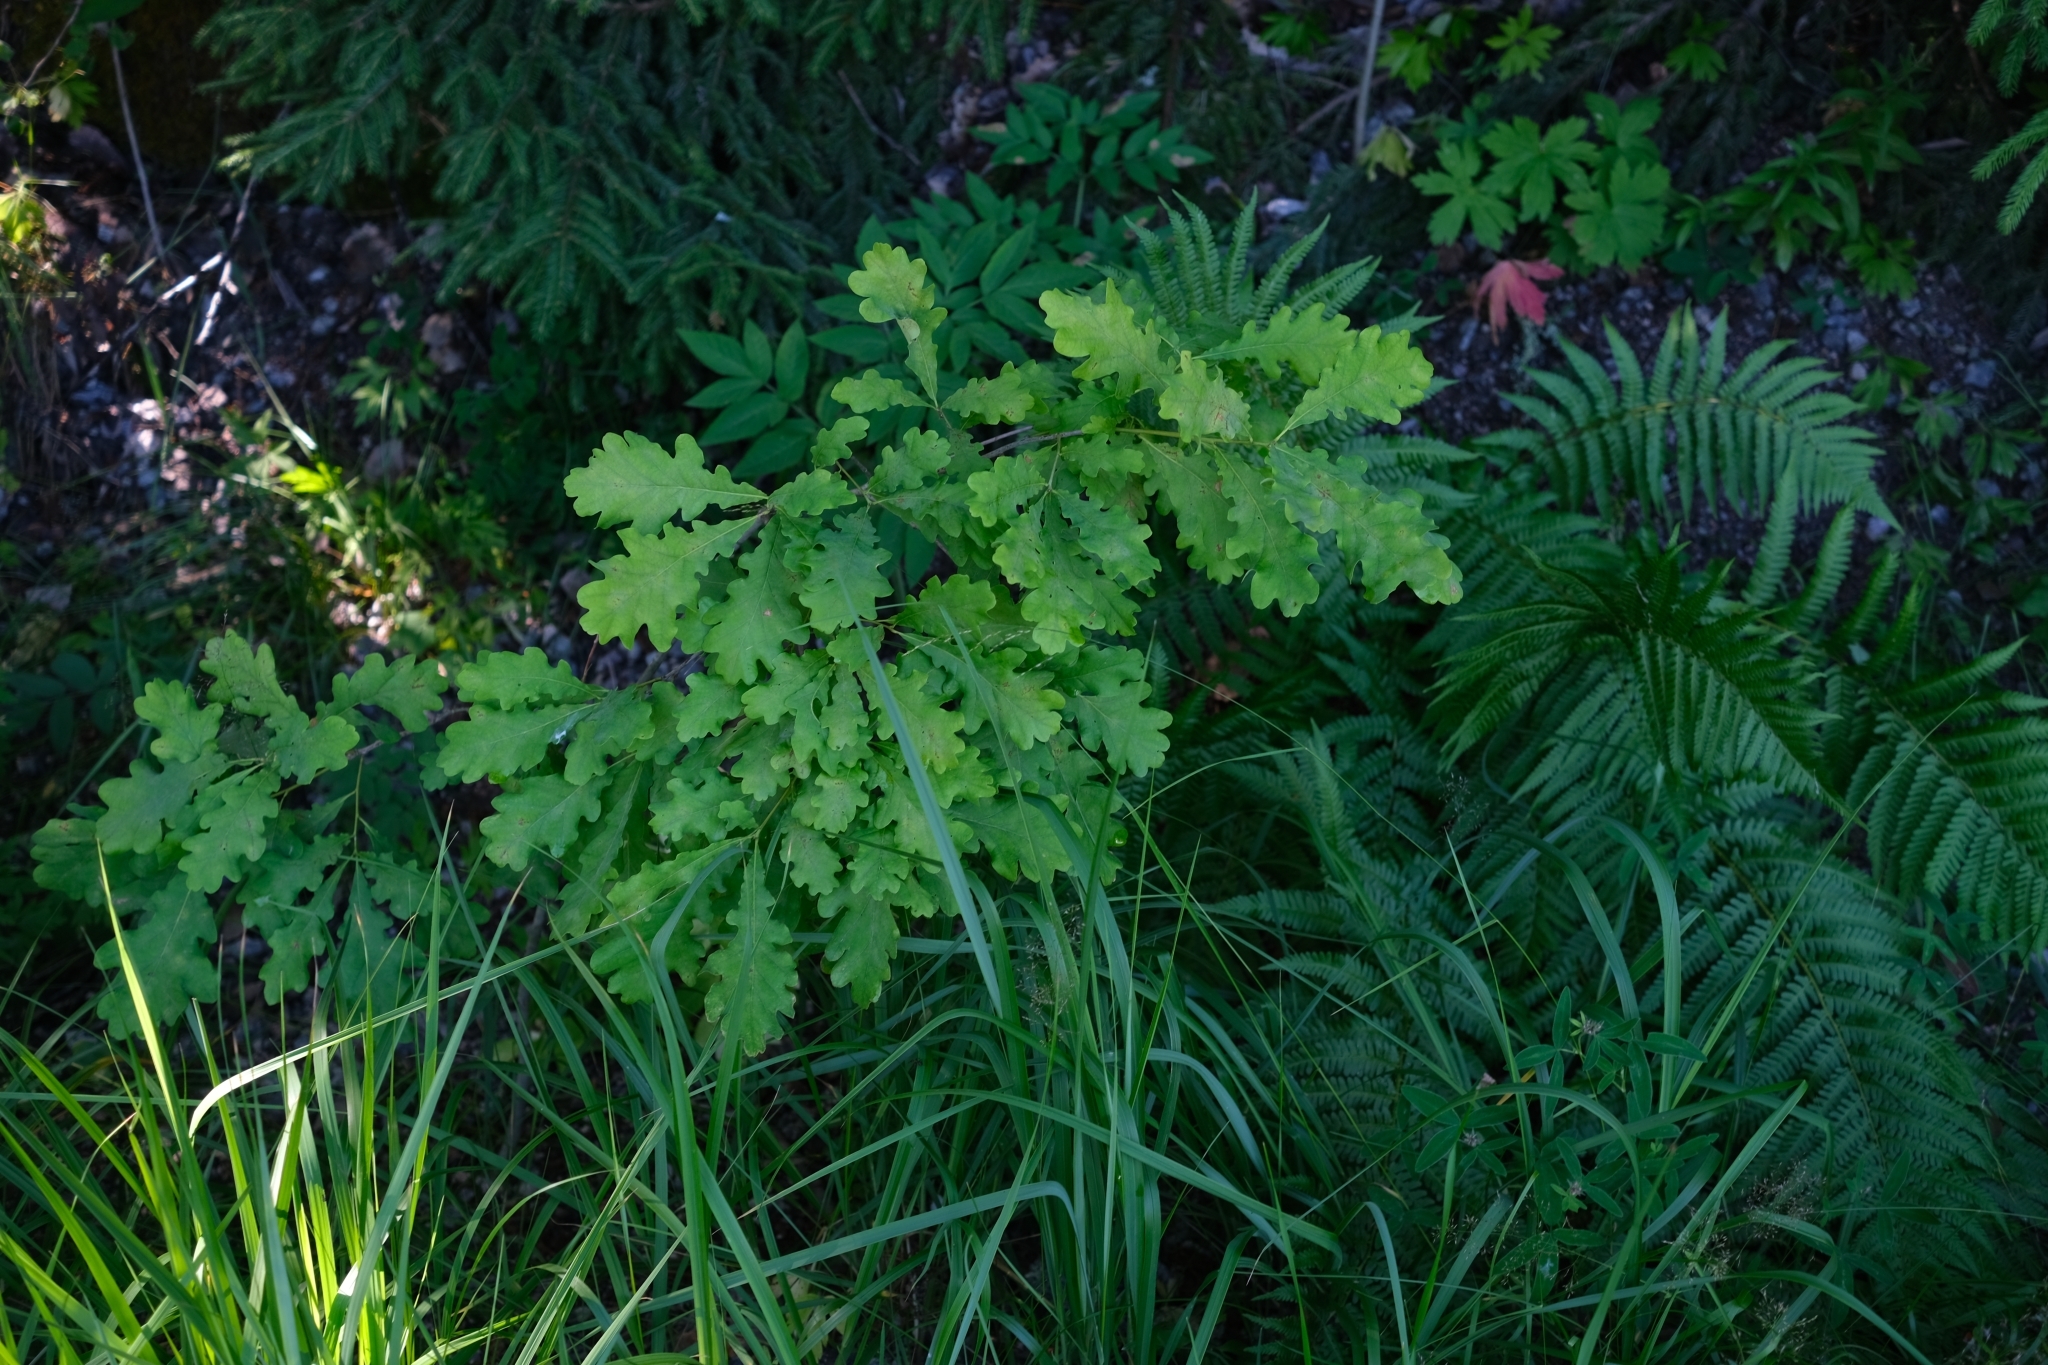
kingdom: Plantae
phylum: Tracheophyta
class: Magnoliopsida
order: Fagales
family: Fagaceae
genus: Quercus
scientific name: Quercus robur
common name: Pedunculate oak
